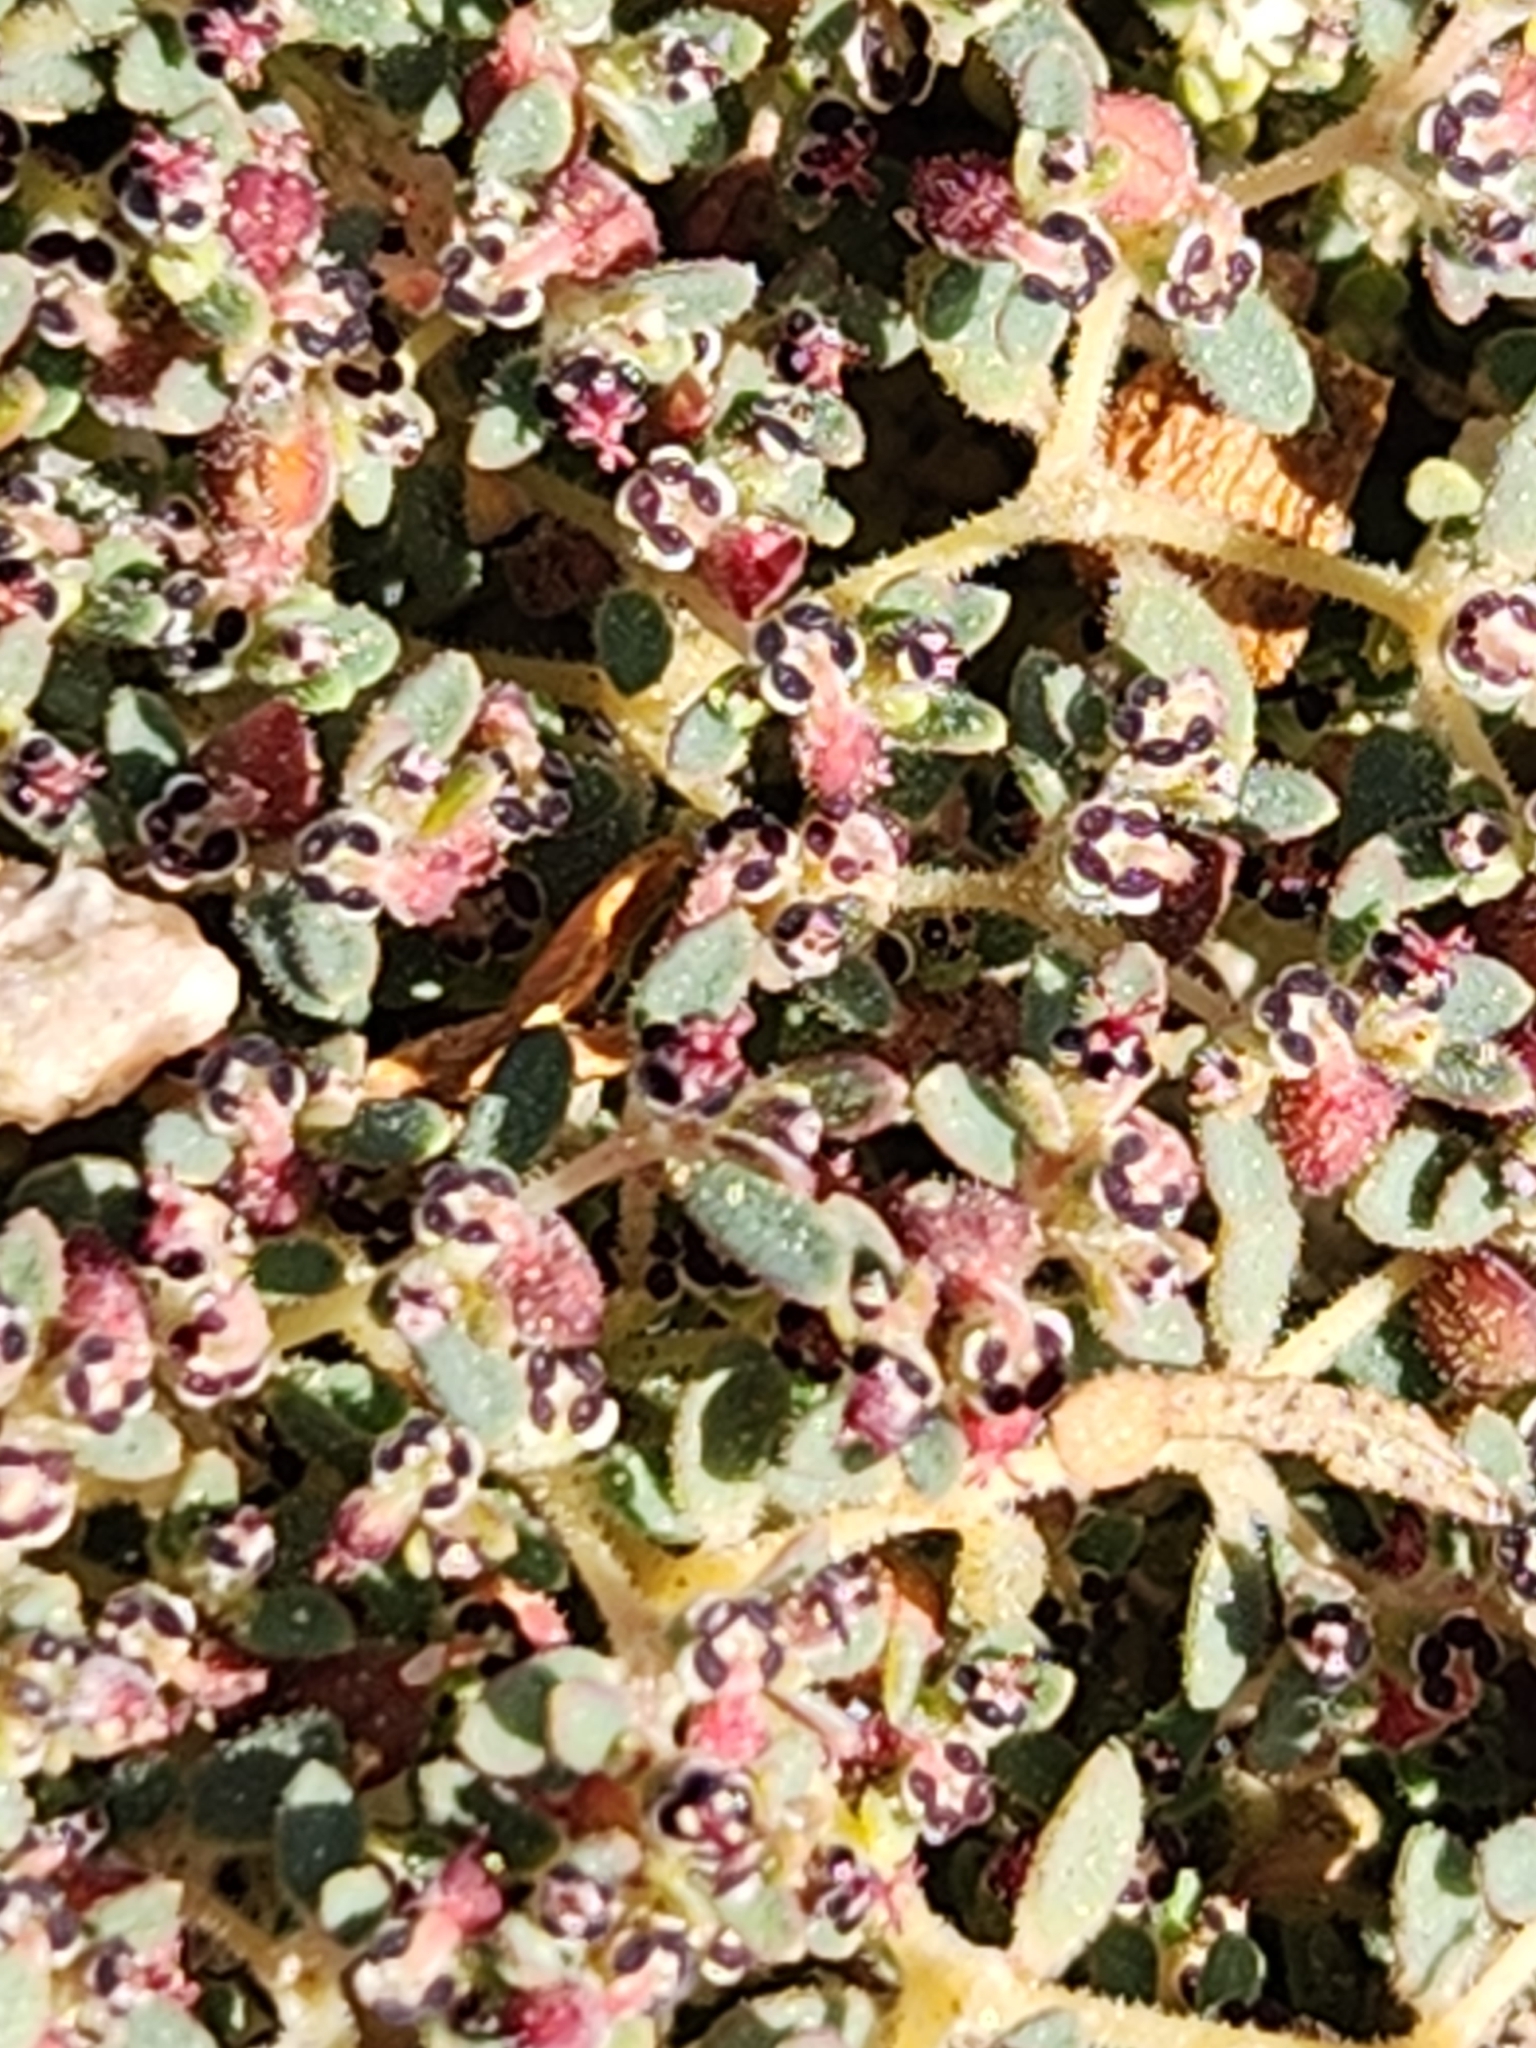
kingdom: Plantae
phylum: Tracheophyta
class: Magnoliopsida
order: Malpighiales
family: Euphorbiaceae
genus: Euphorbia
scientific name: Euphorbia polycarpa
